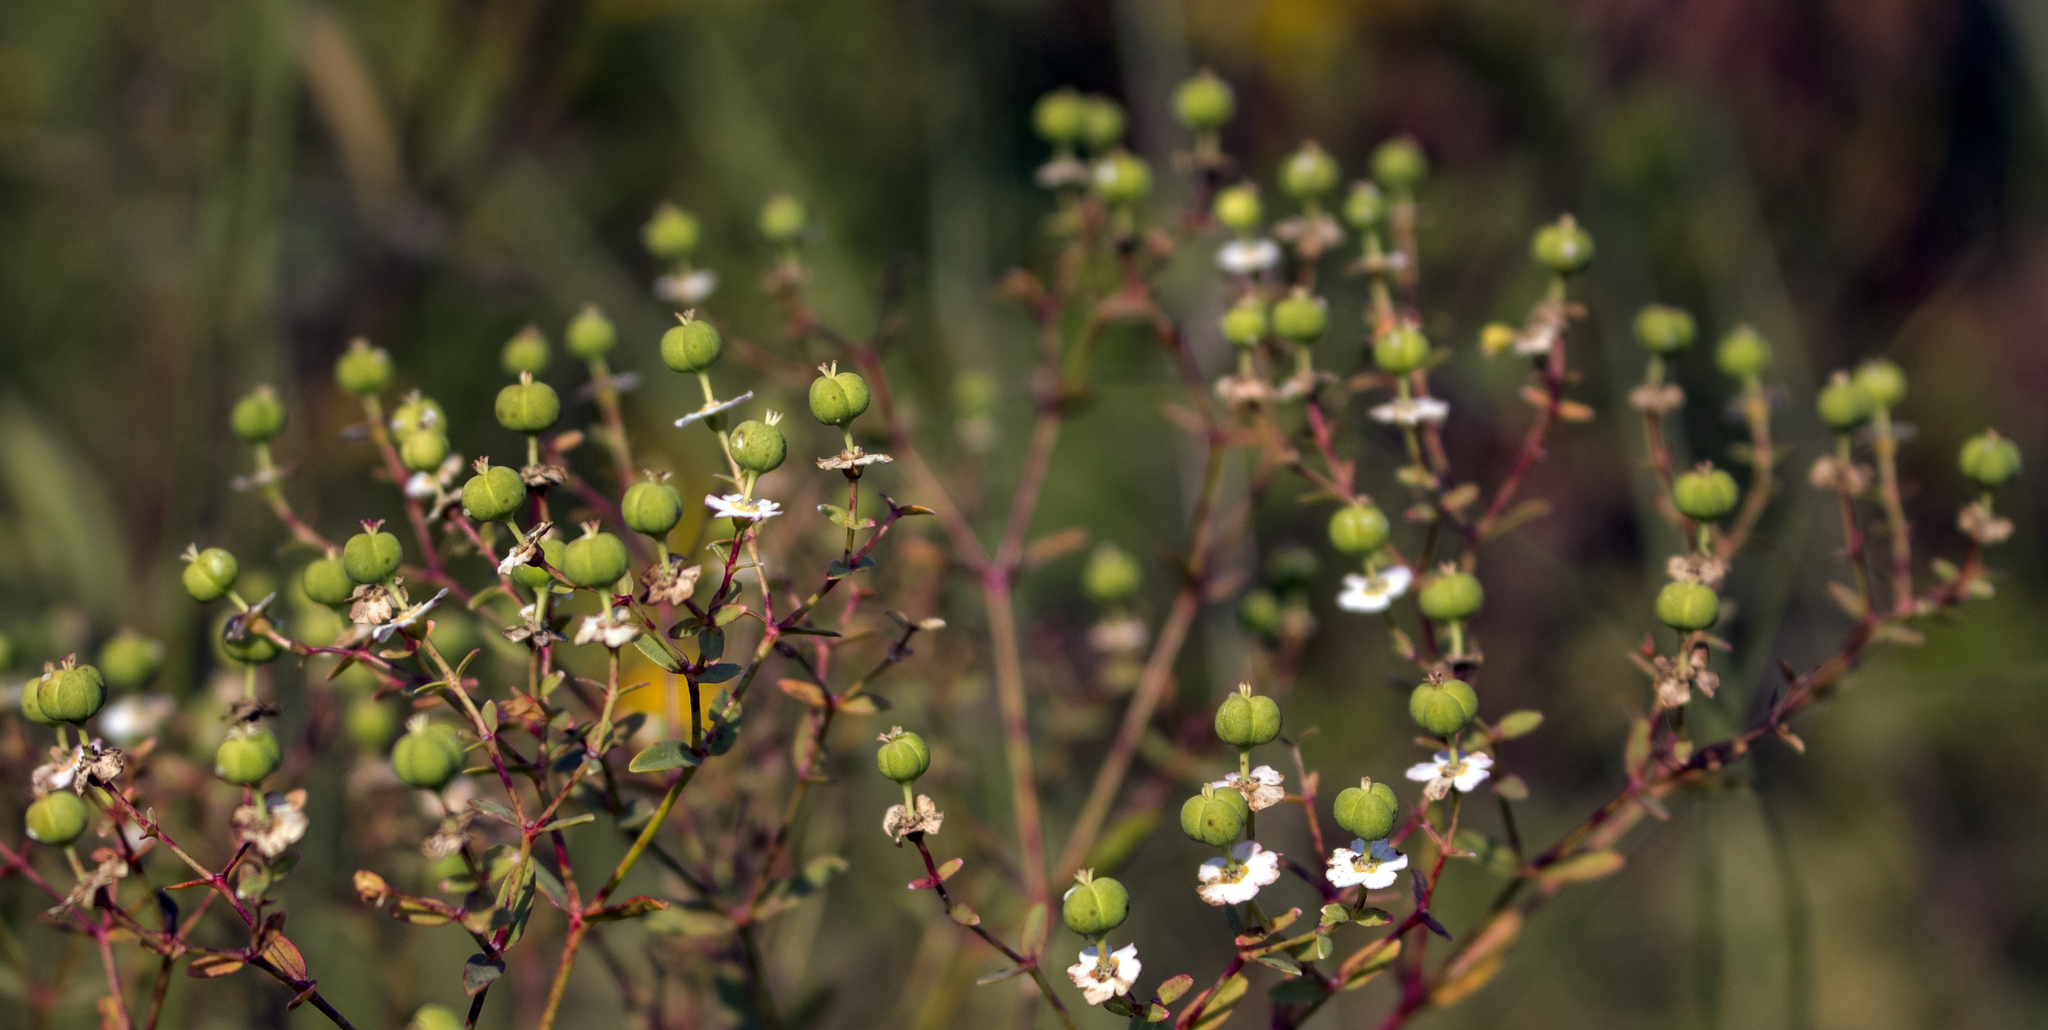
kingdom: Plantae
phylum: Tracheophyta
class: Magnoliopsida
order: Malpighiales
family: Euphorbiaceae
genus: Euphorbia
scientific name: Euphorbia corollata
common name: Flowering spurge
